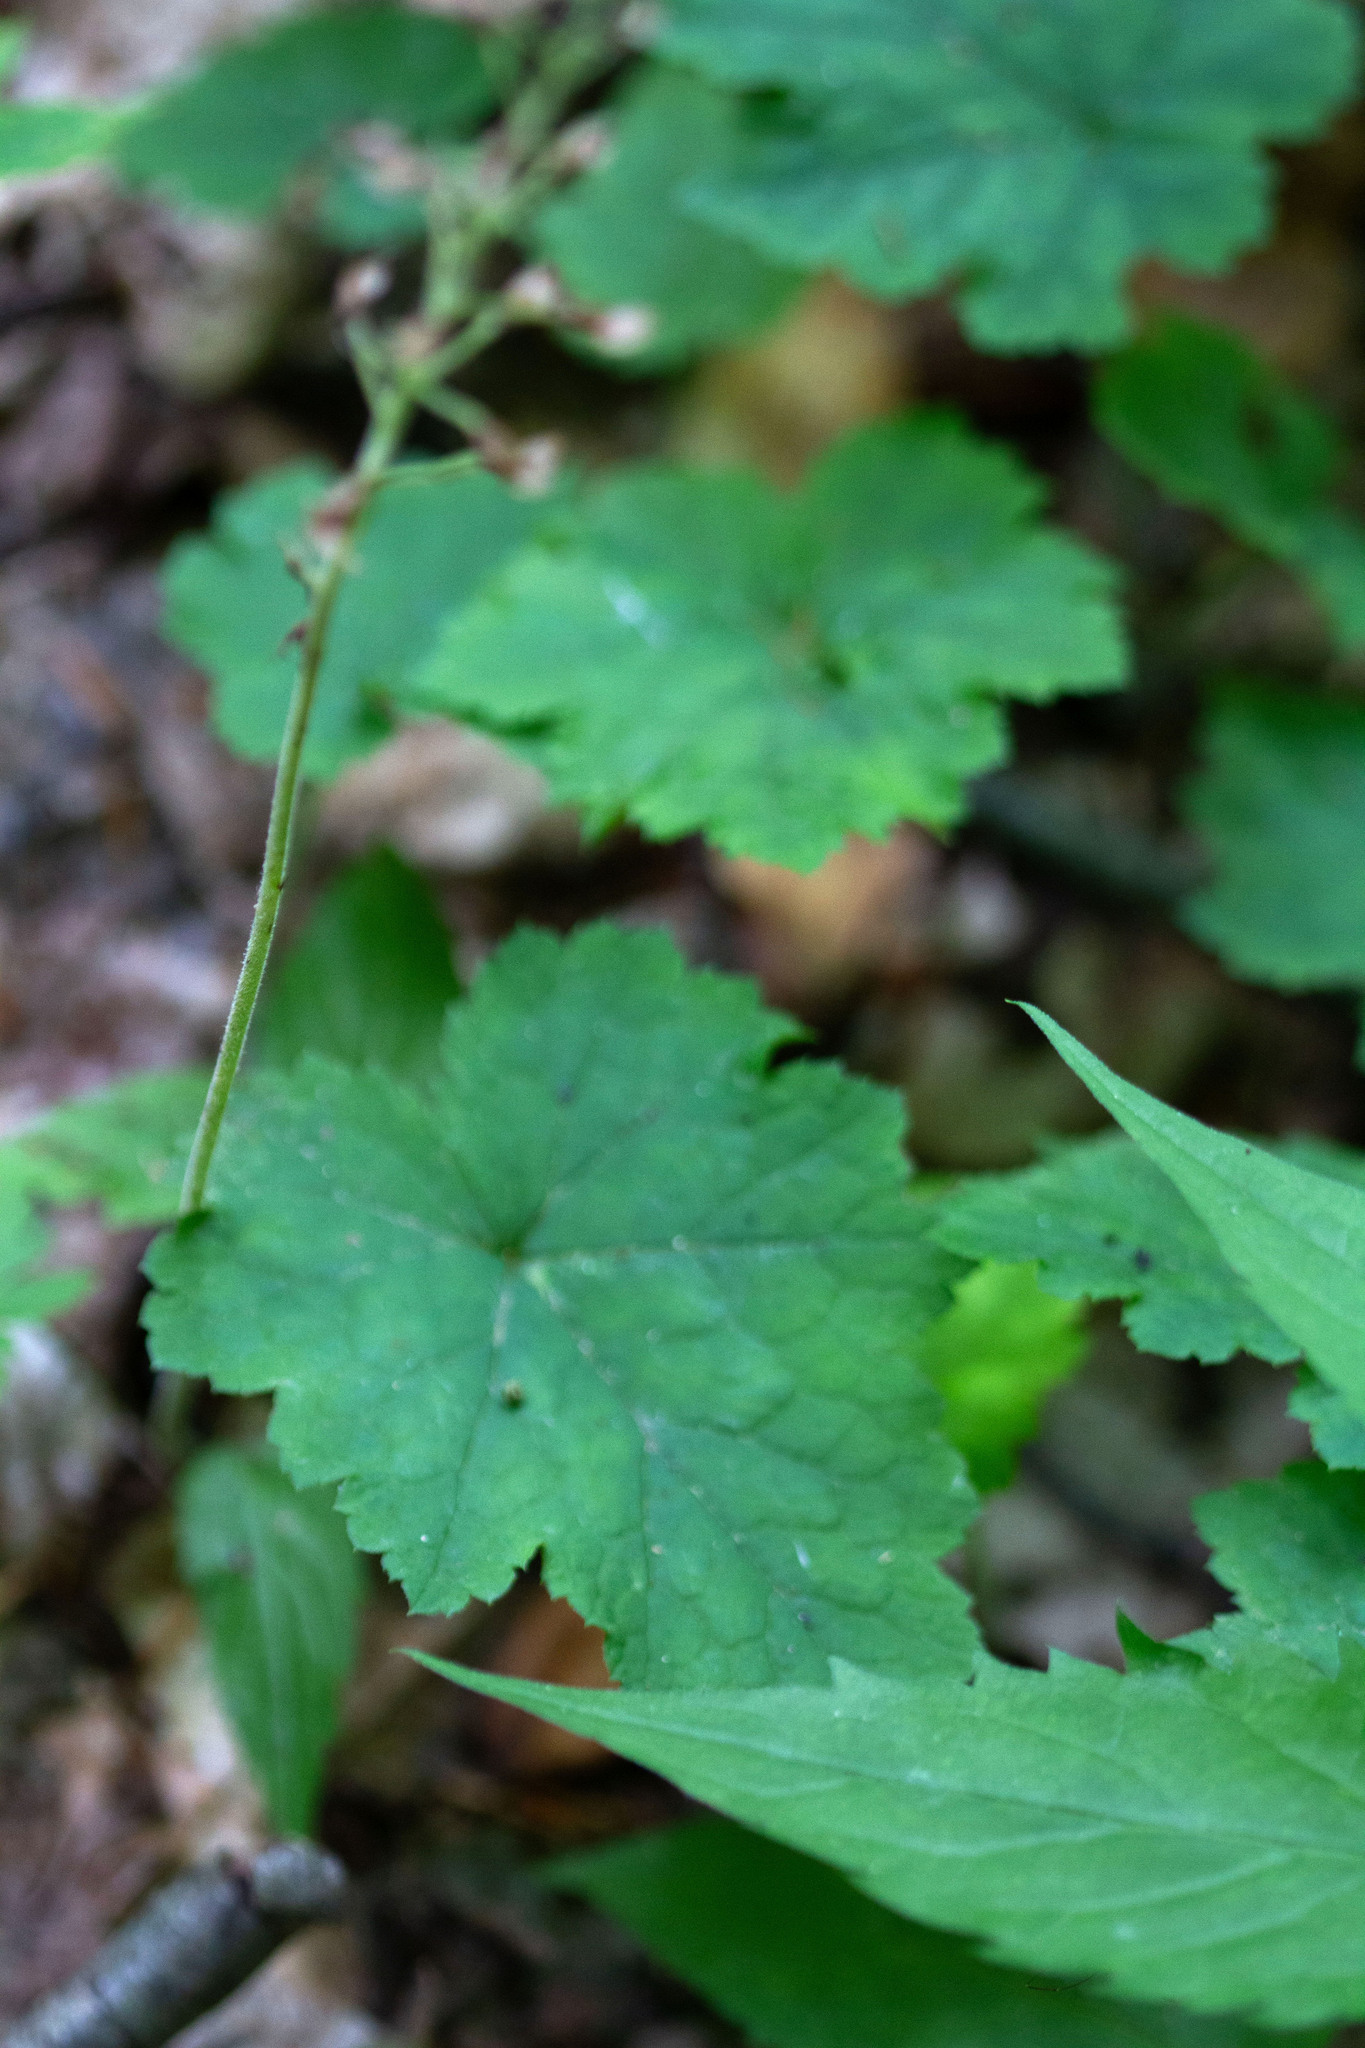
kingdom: Plantae
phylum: Tracheophyta
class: Magnoliopsida
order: Saxifragales
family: Saxifragaceae
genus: Tiarella
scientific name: Tiarella stolonifera
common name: Stoloniferous foamflower
